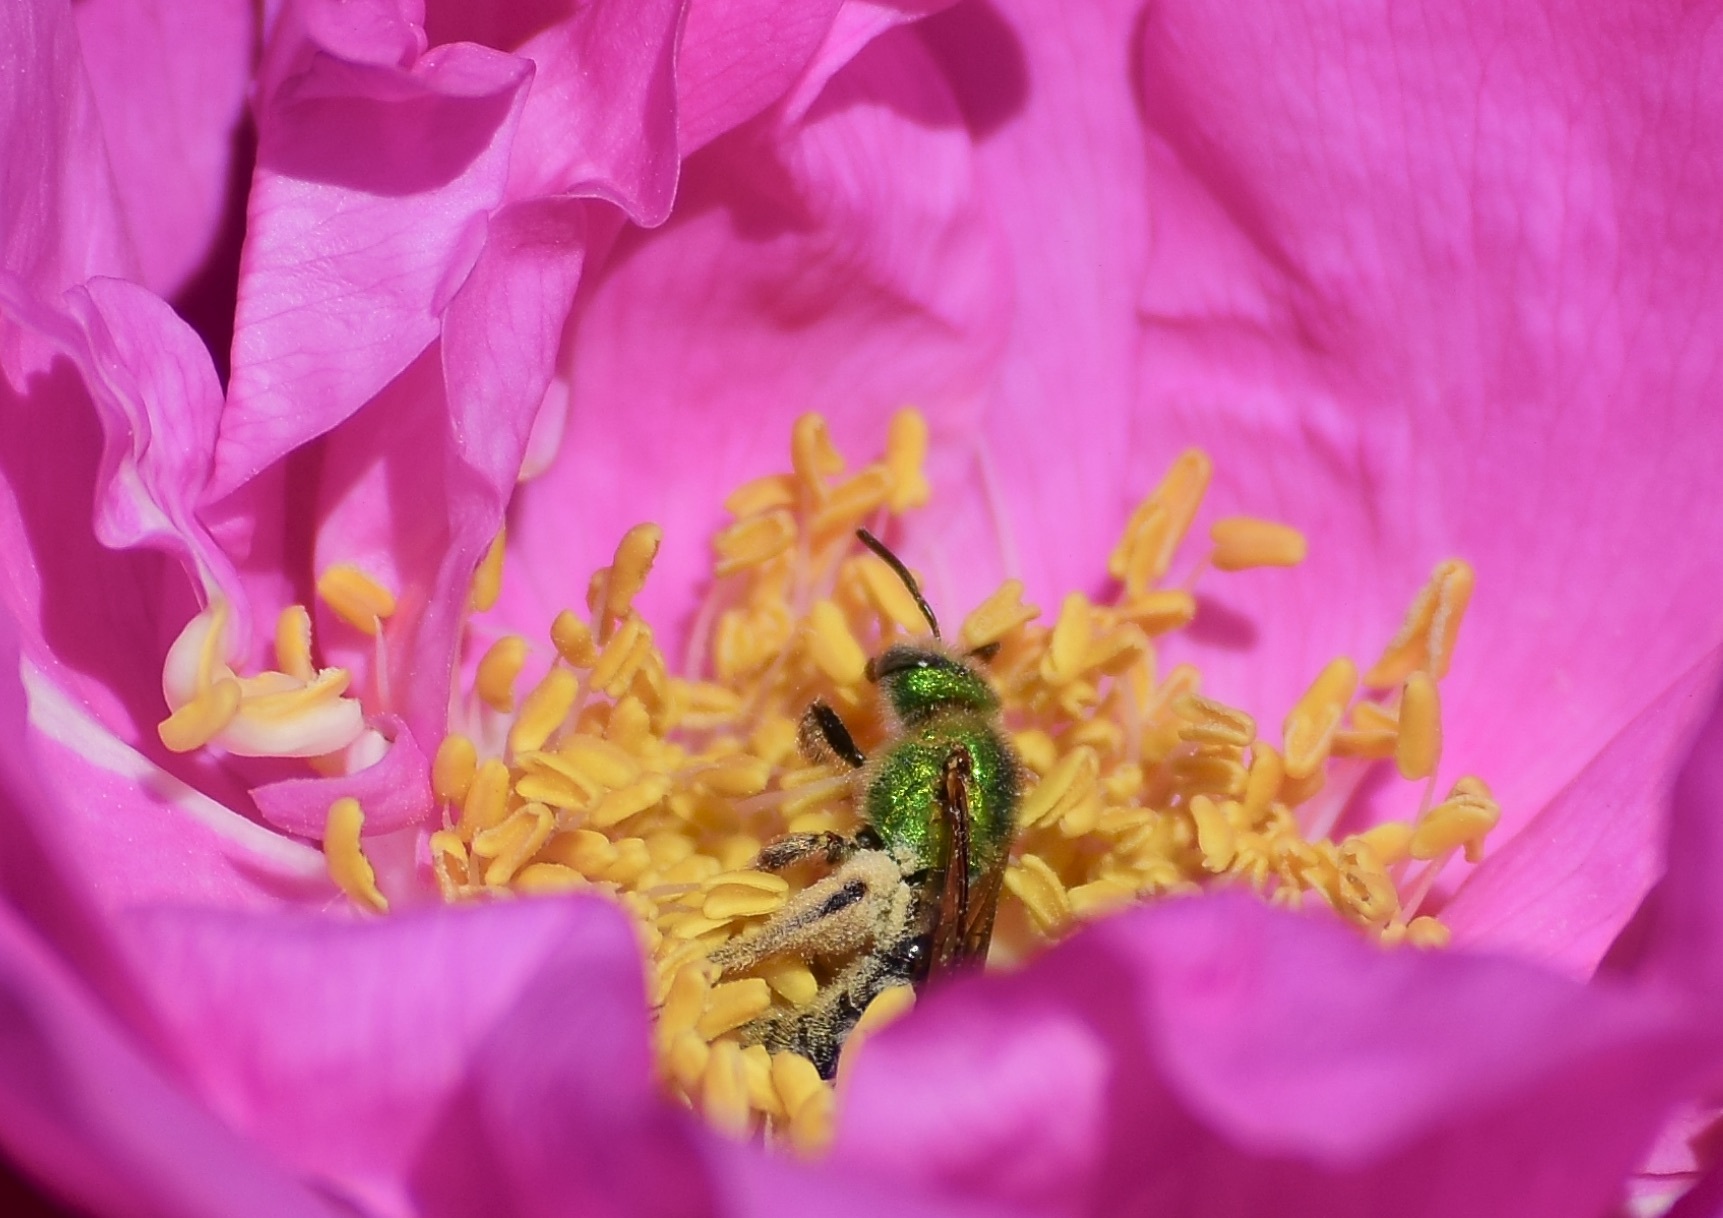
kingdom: Animalia
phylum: Arthropoda
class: Insecta
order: Hymenoptera
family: Halictidae
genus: Agapostemon
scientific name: Agapostemon virescens
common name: Bicolored striped sweat bee
